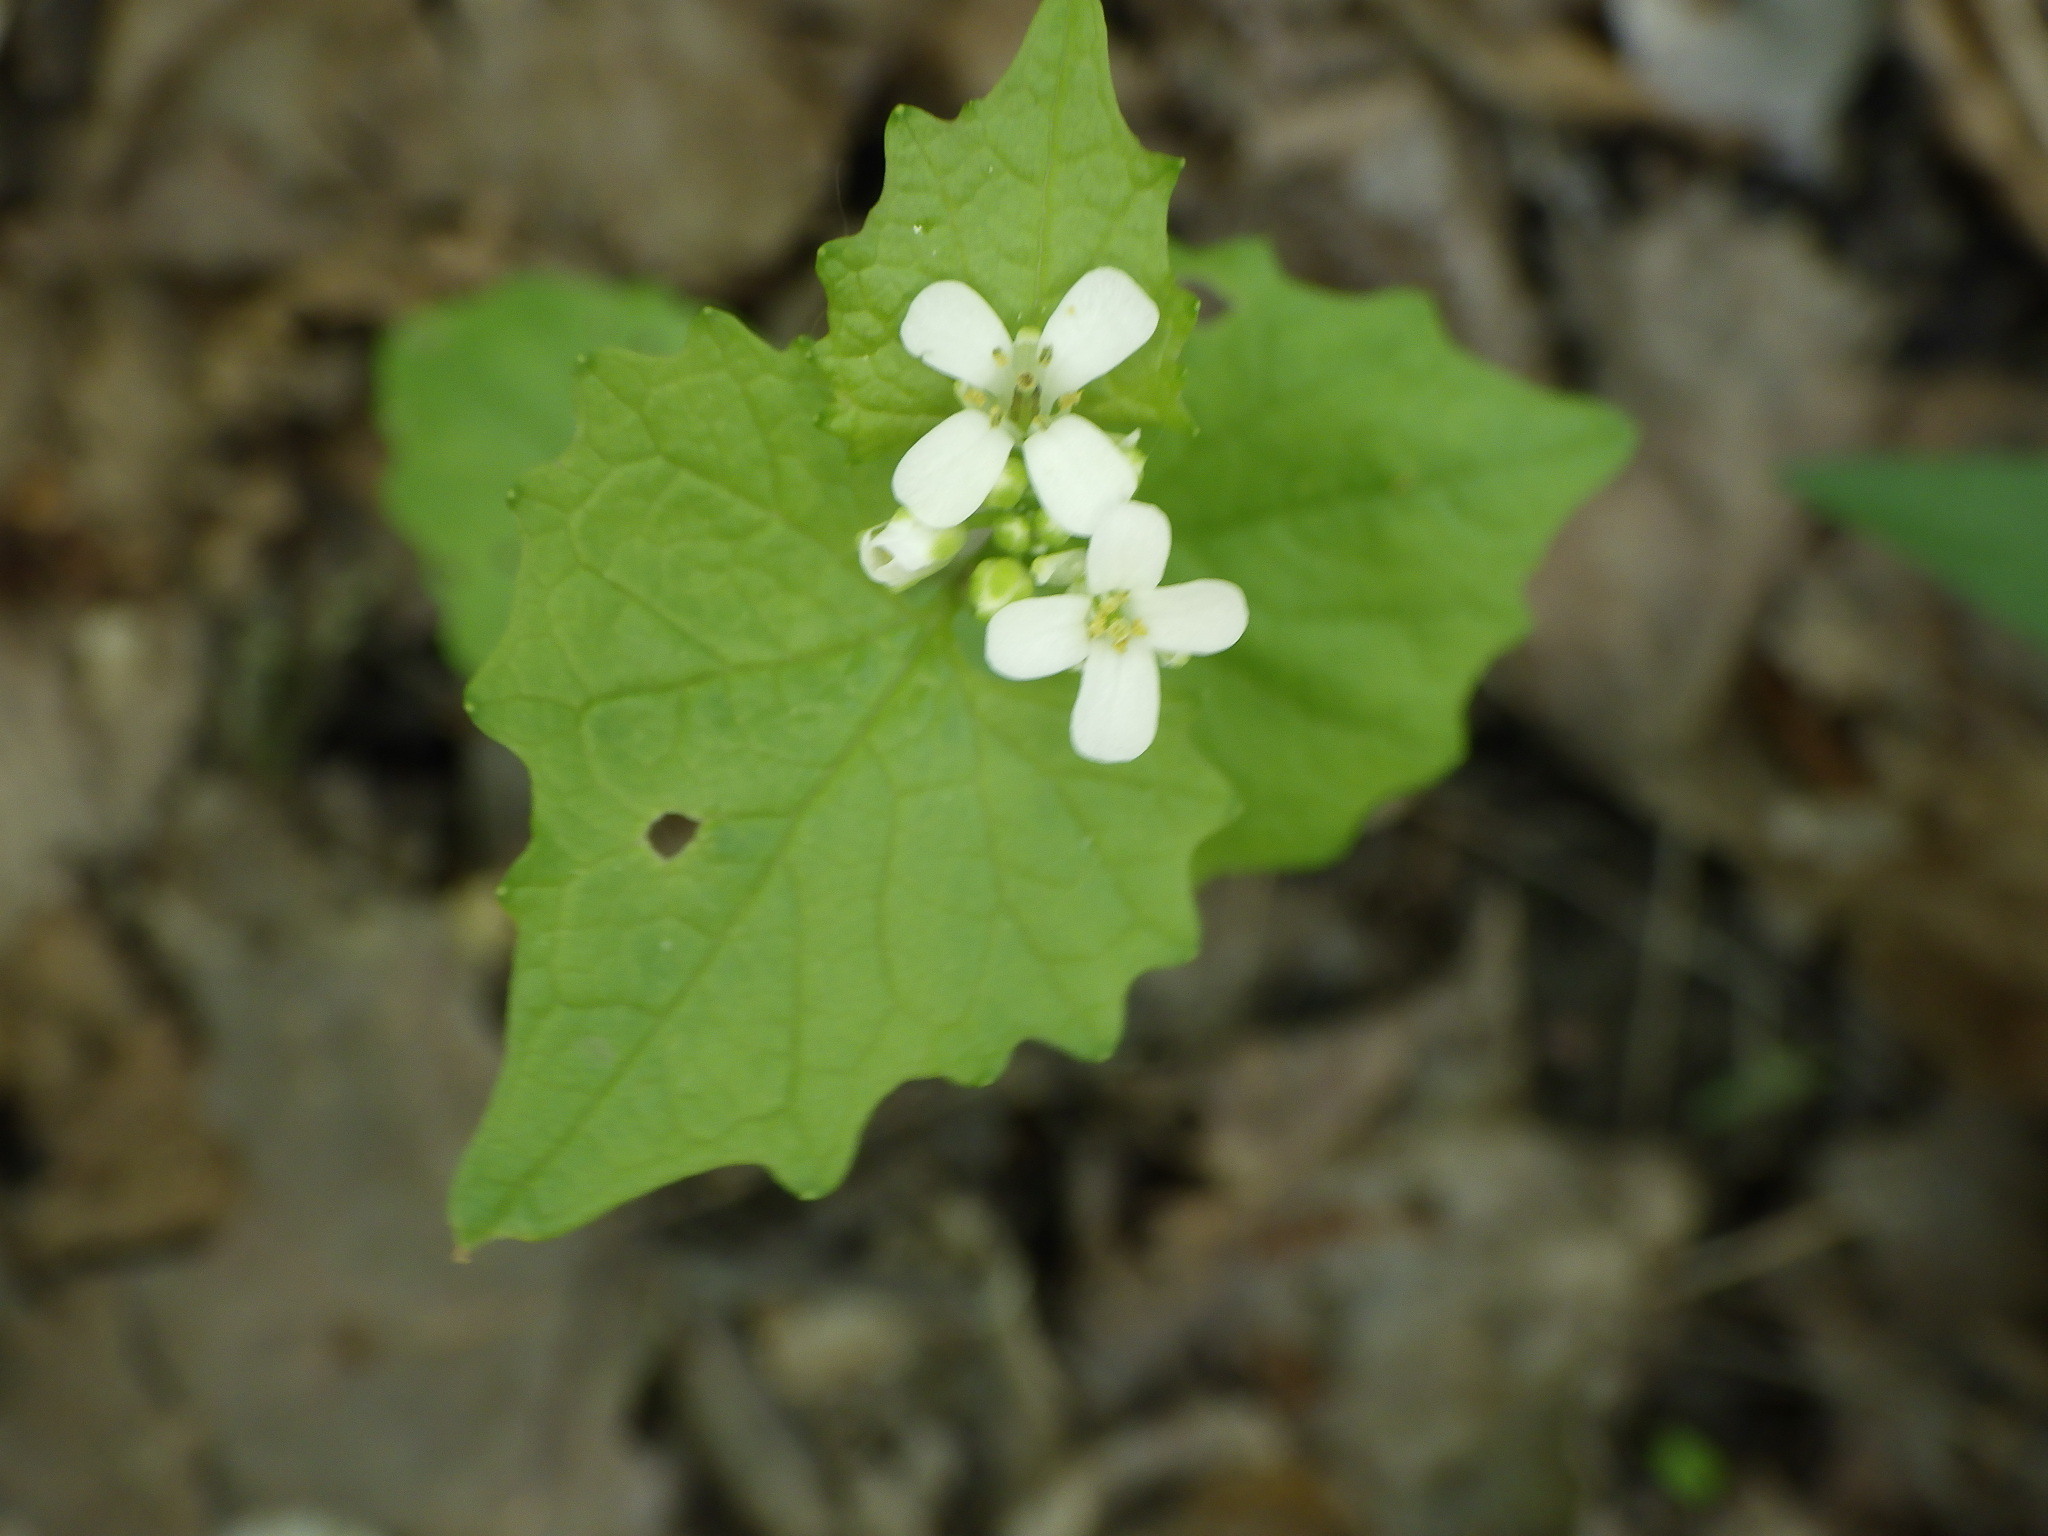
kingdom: Plantae
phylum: Tracheophyta
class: Magnoliopsida
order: Brassicales
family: Brassicaceae
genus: Alliaria
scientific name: Alliaria petiolata
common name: Garlic mustard
